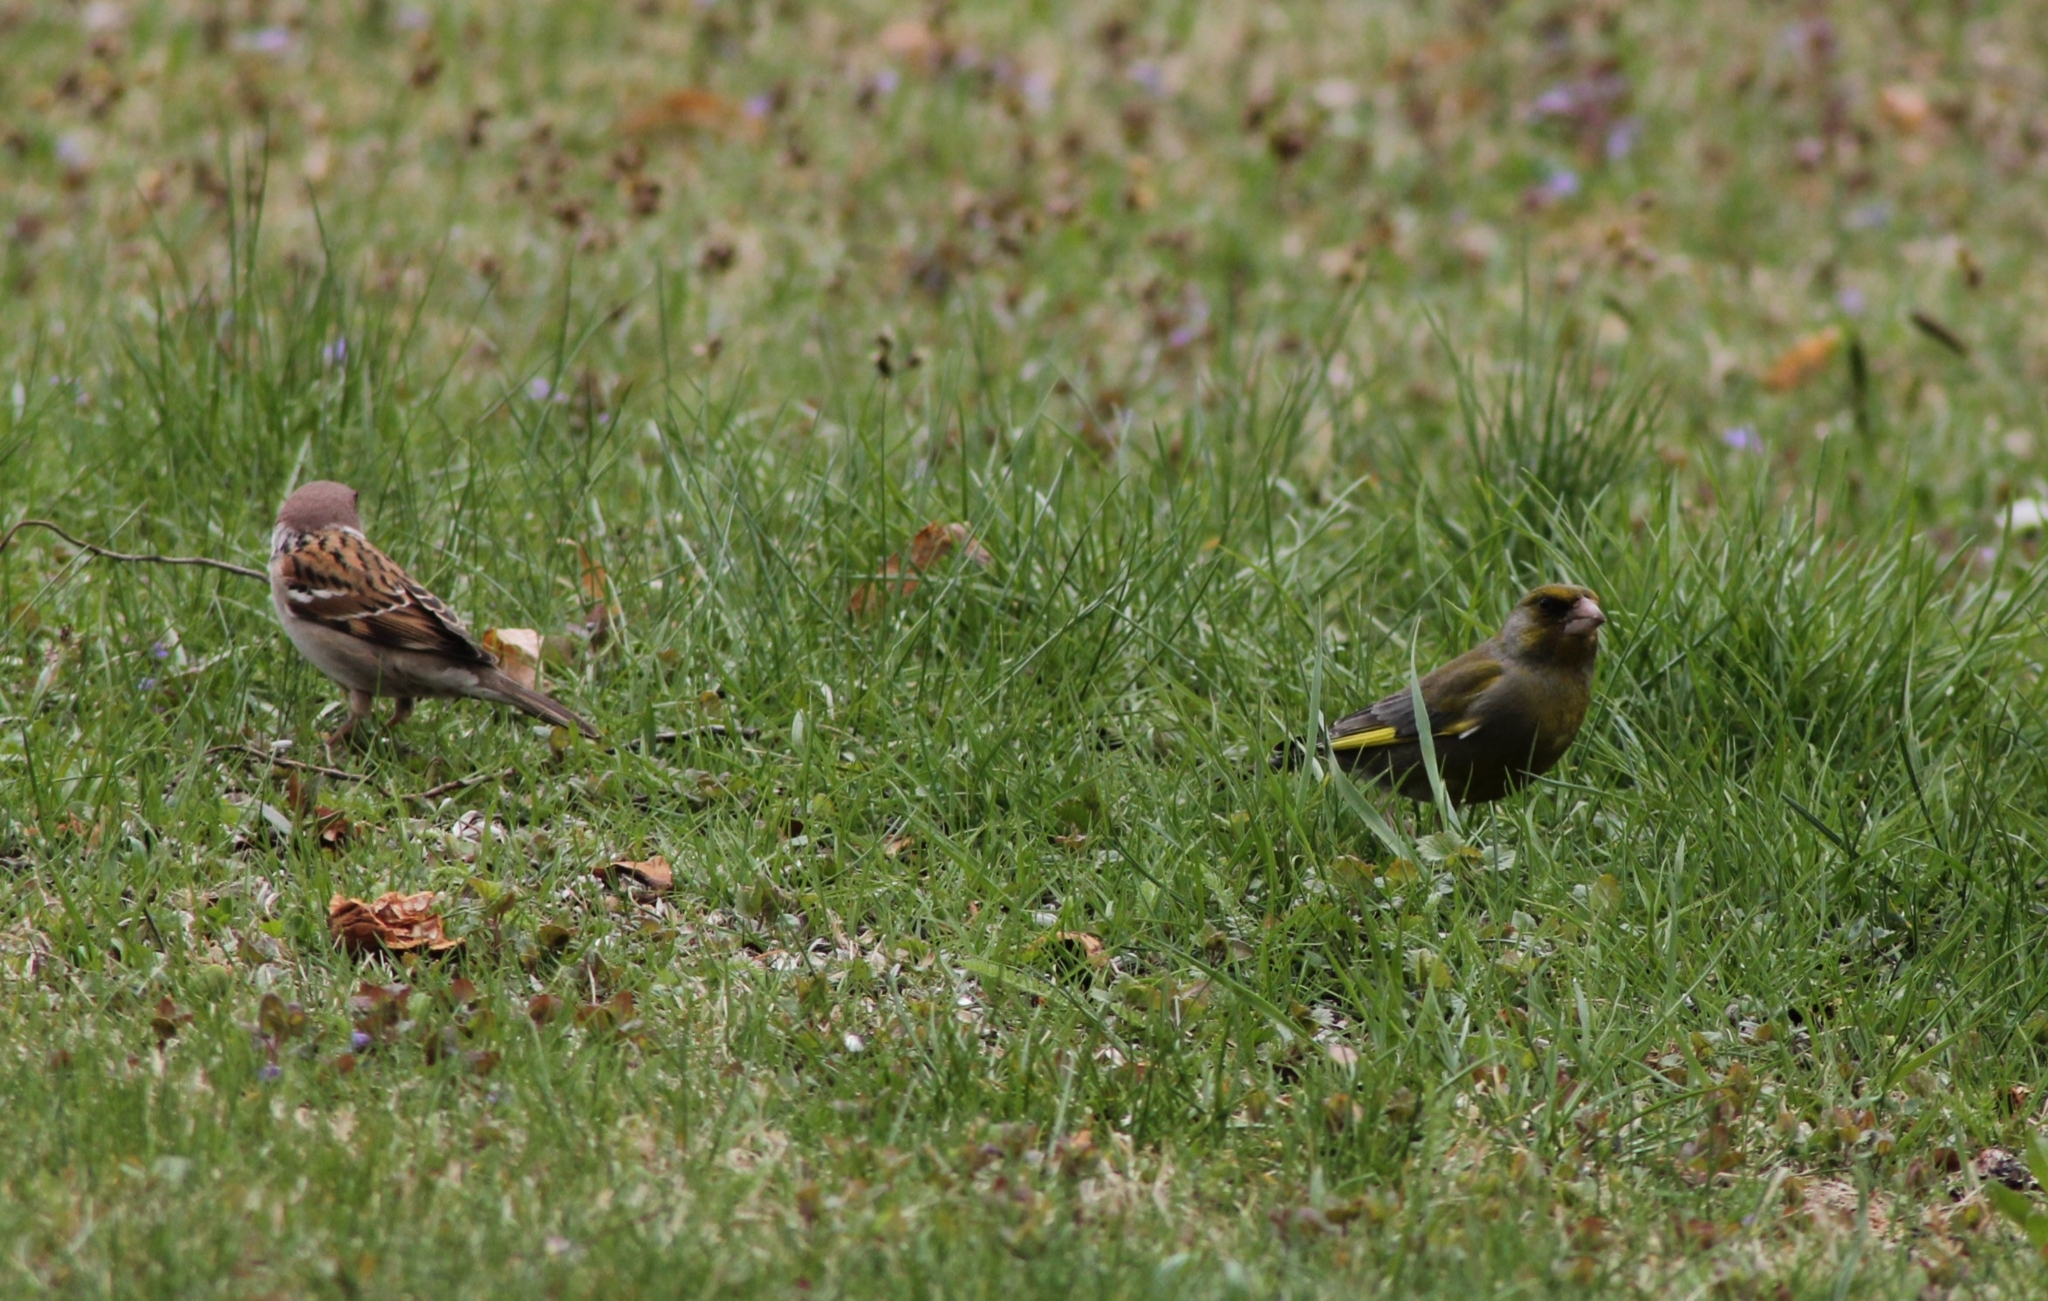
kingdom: Plantae
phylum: Tracheophyta
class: Liliopsida
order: Poales
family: Poaceae
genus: Chloris
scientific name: Chloris chloris
